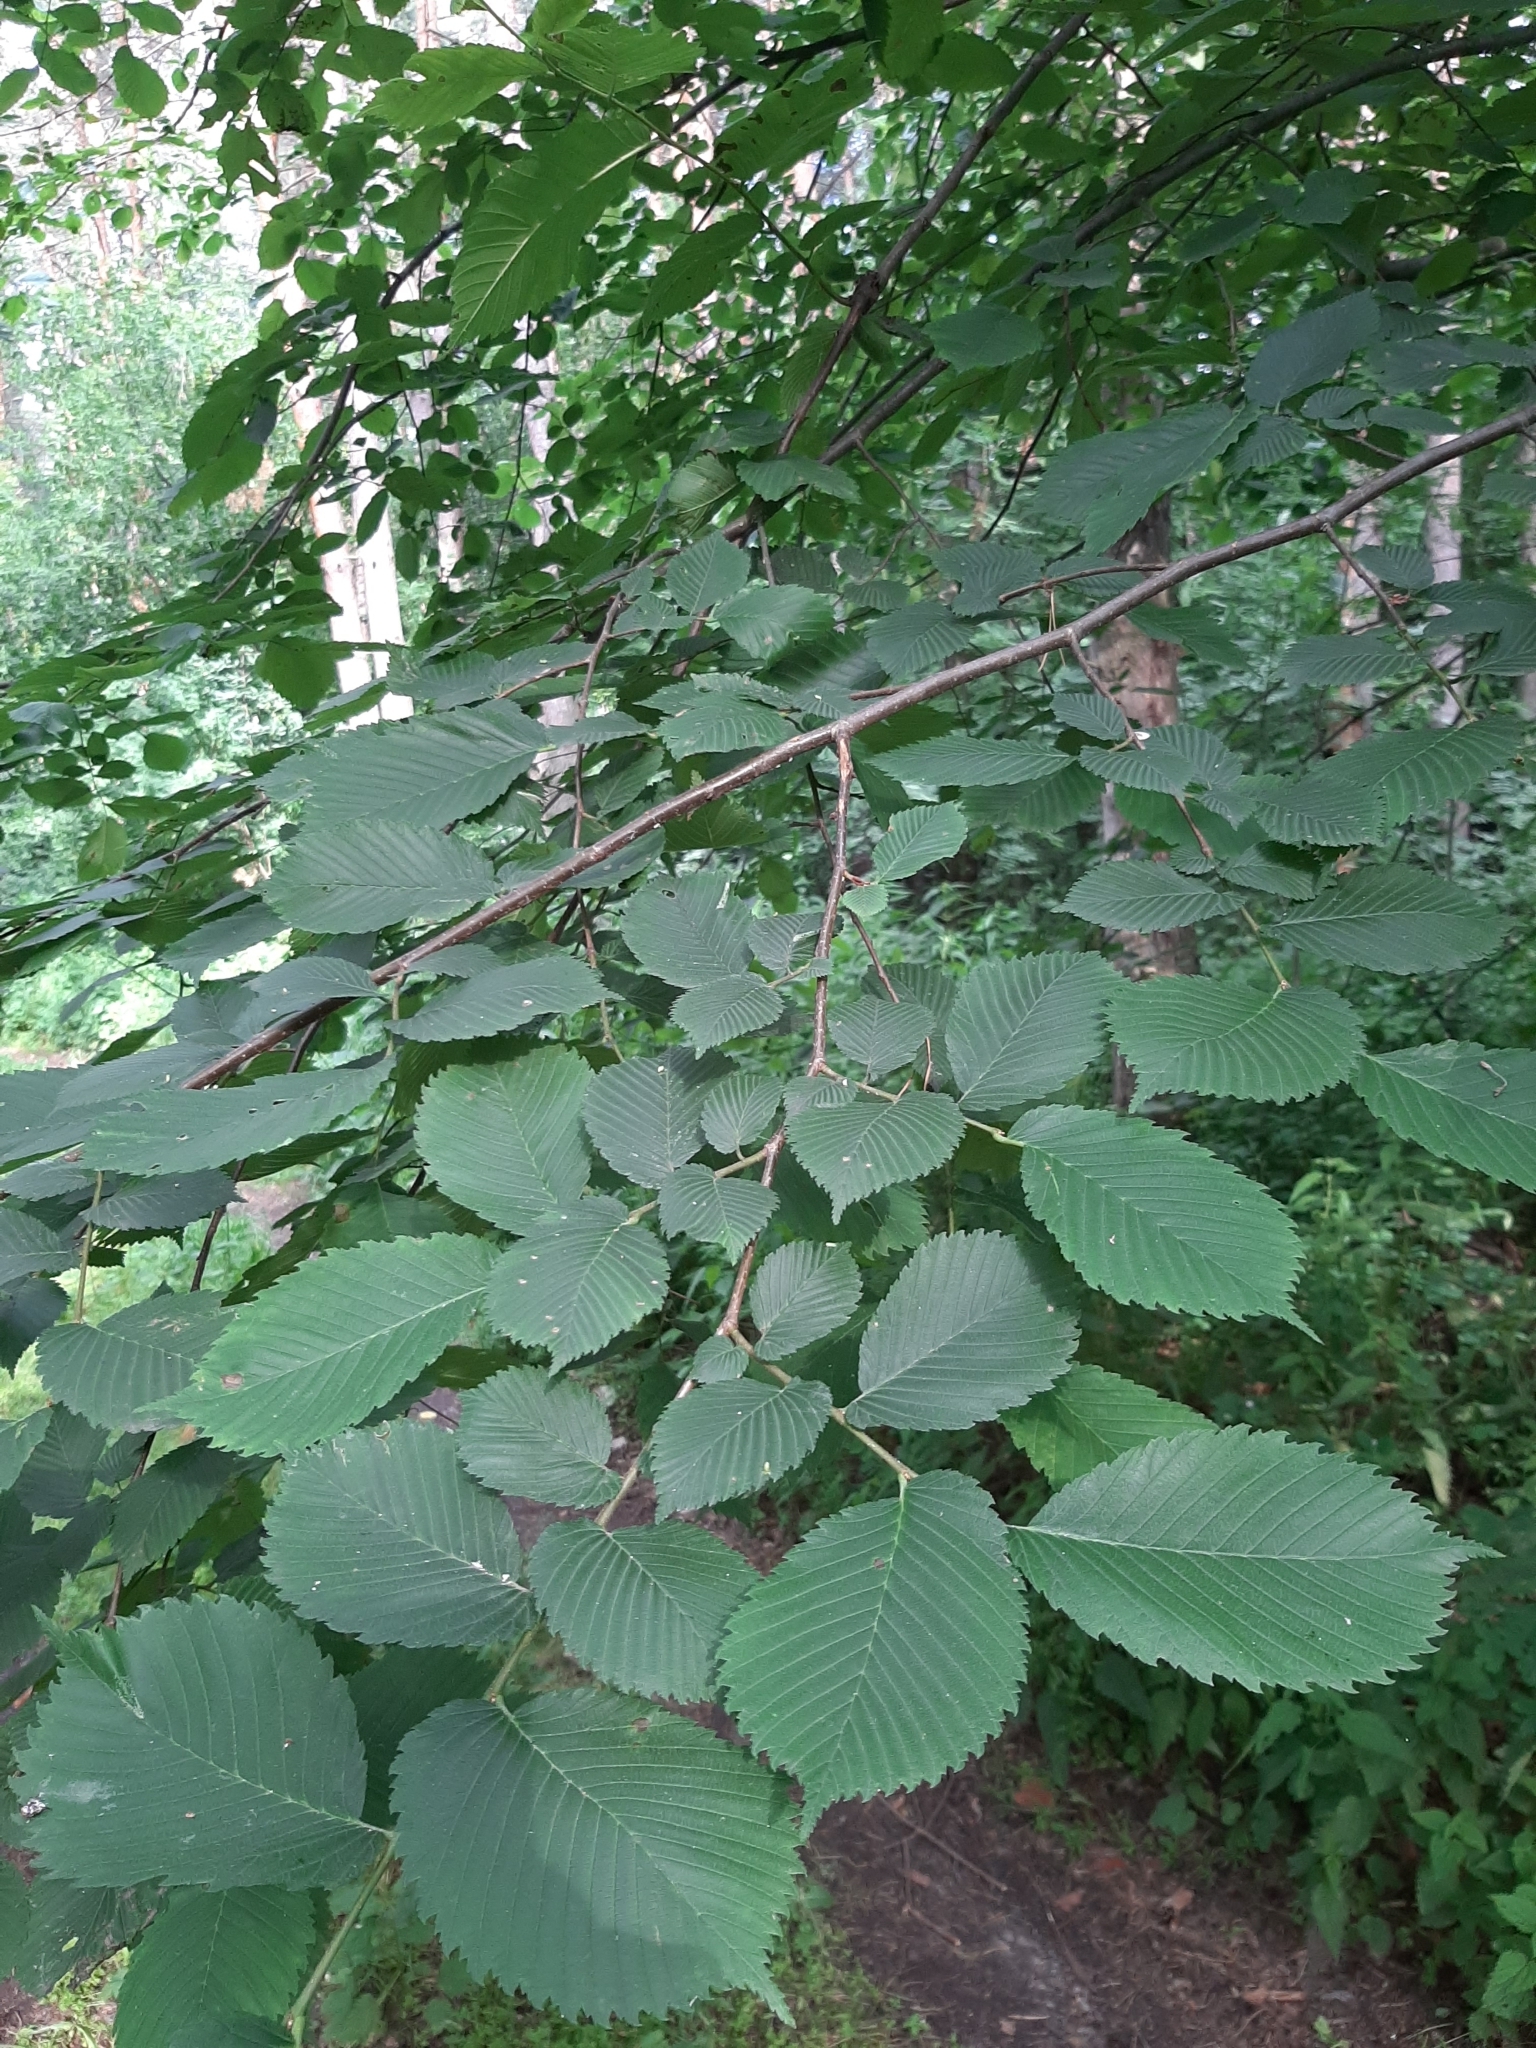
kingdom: Plantae
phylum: Tracheophyta
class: Magnoliopsida
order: Rosales
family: Ulmaceae
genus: Ulmus
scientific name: Ulmus laevis
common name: European white-elm
